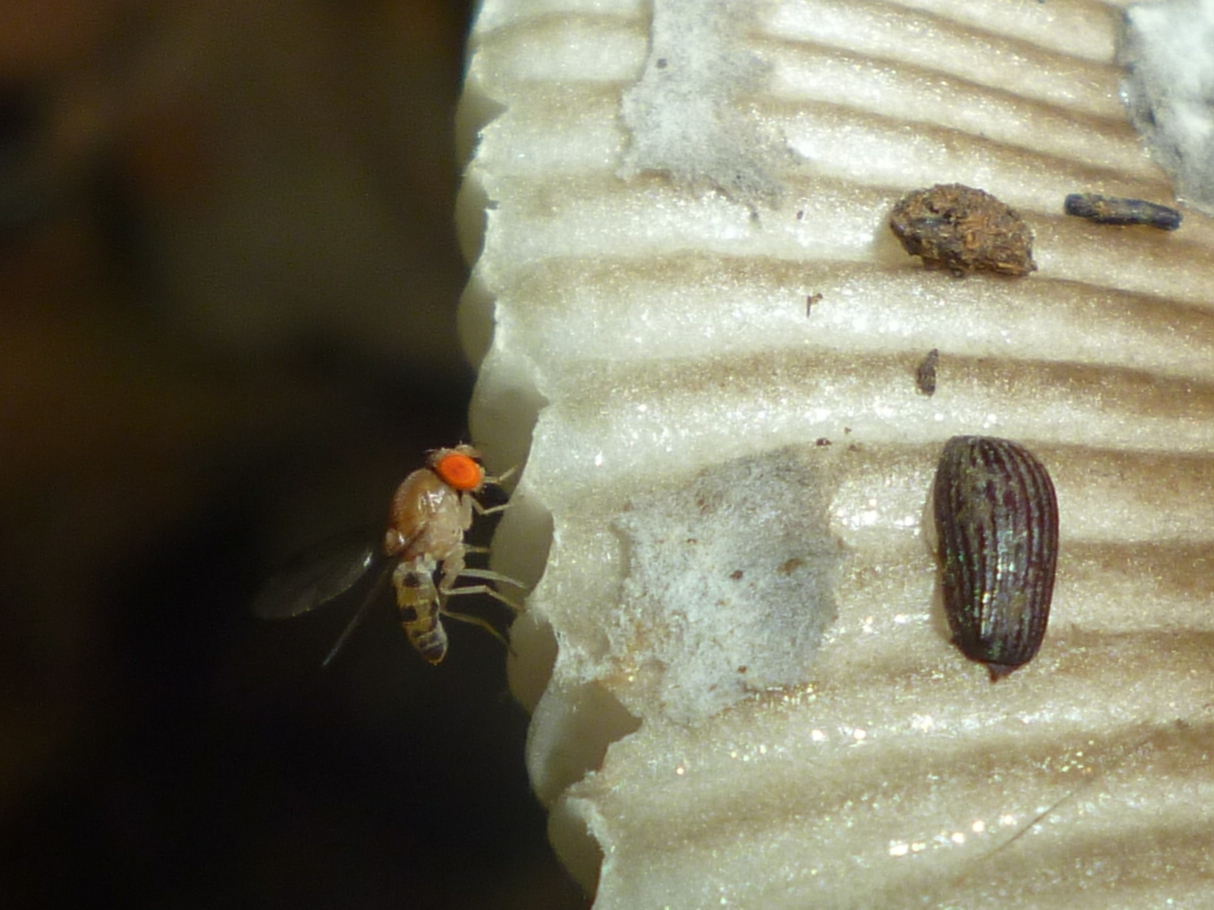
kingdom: Animalia
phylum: Arthropoda
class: Insecta
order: Diptera
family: Drosophilidae
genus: Leucophenga
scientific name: Leucophenga varia
